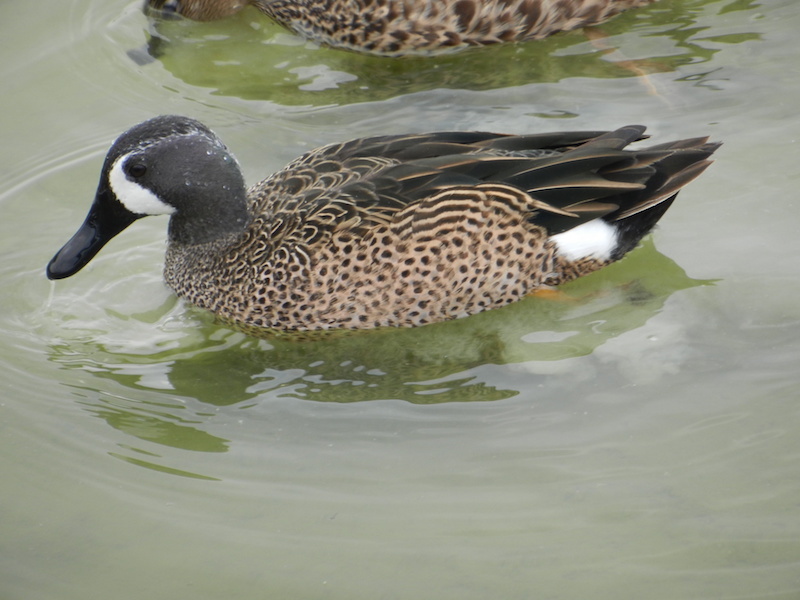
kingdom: Animalia
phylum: Chordata
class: Aves
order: Anseriformes
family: Anatidae
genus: Spatula
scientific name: Spatula discors
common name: Blue-winged teal
